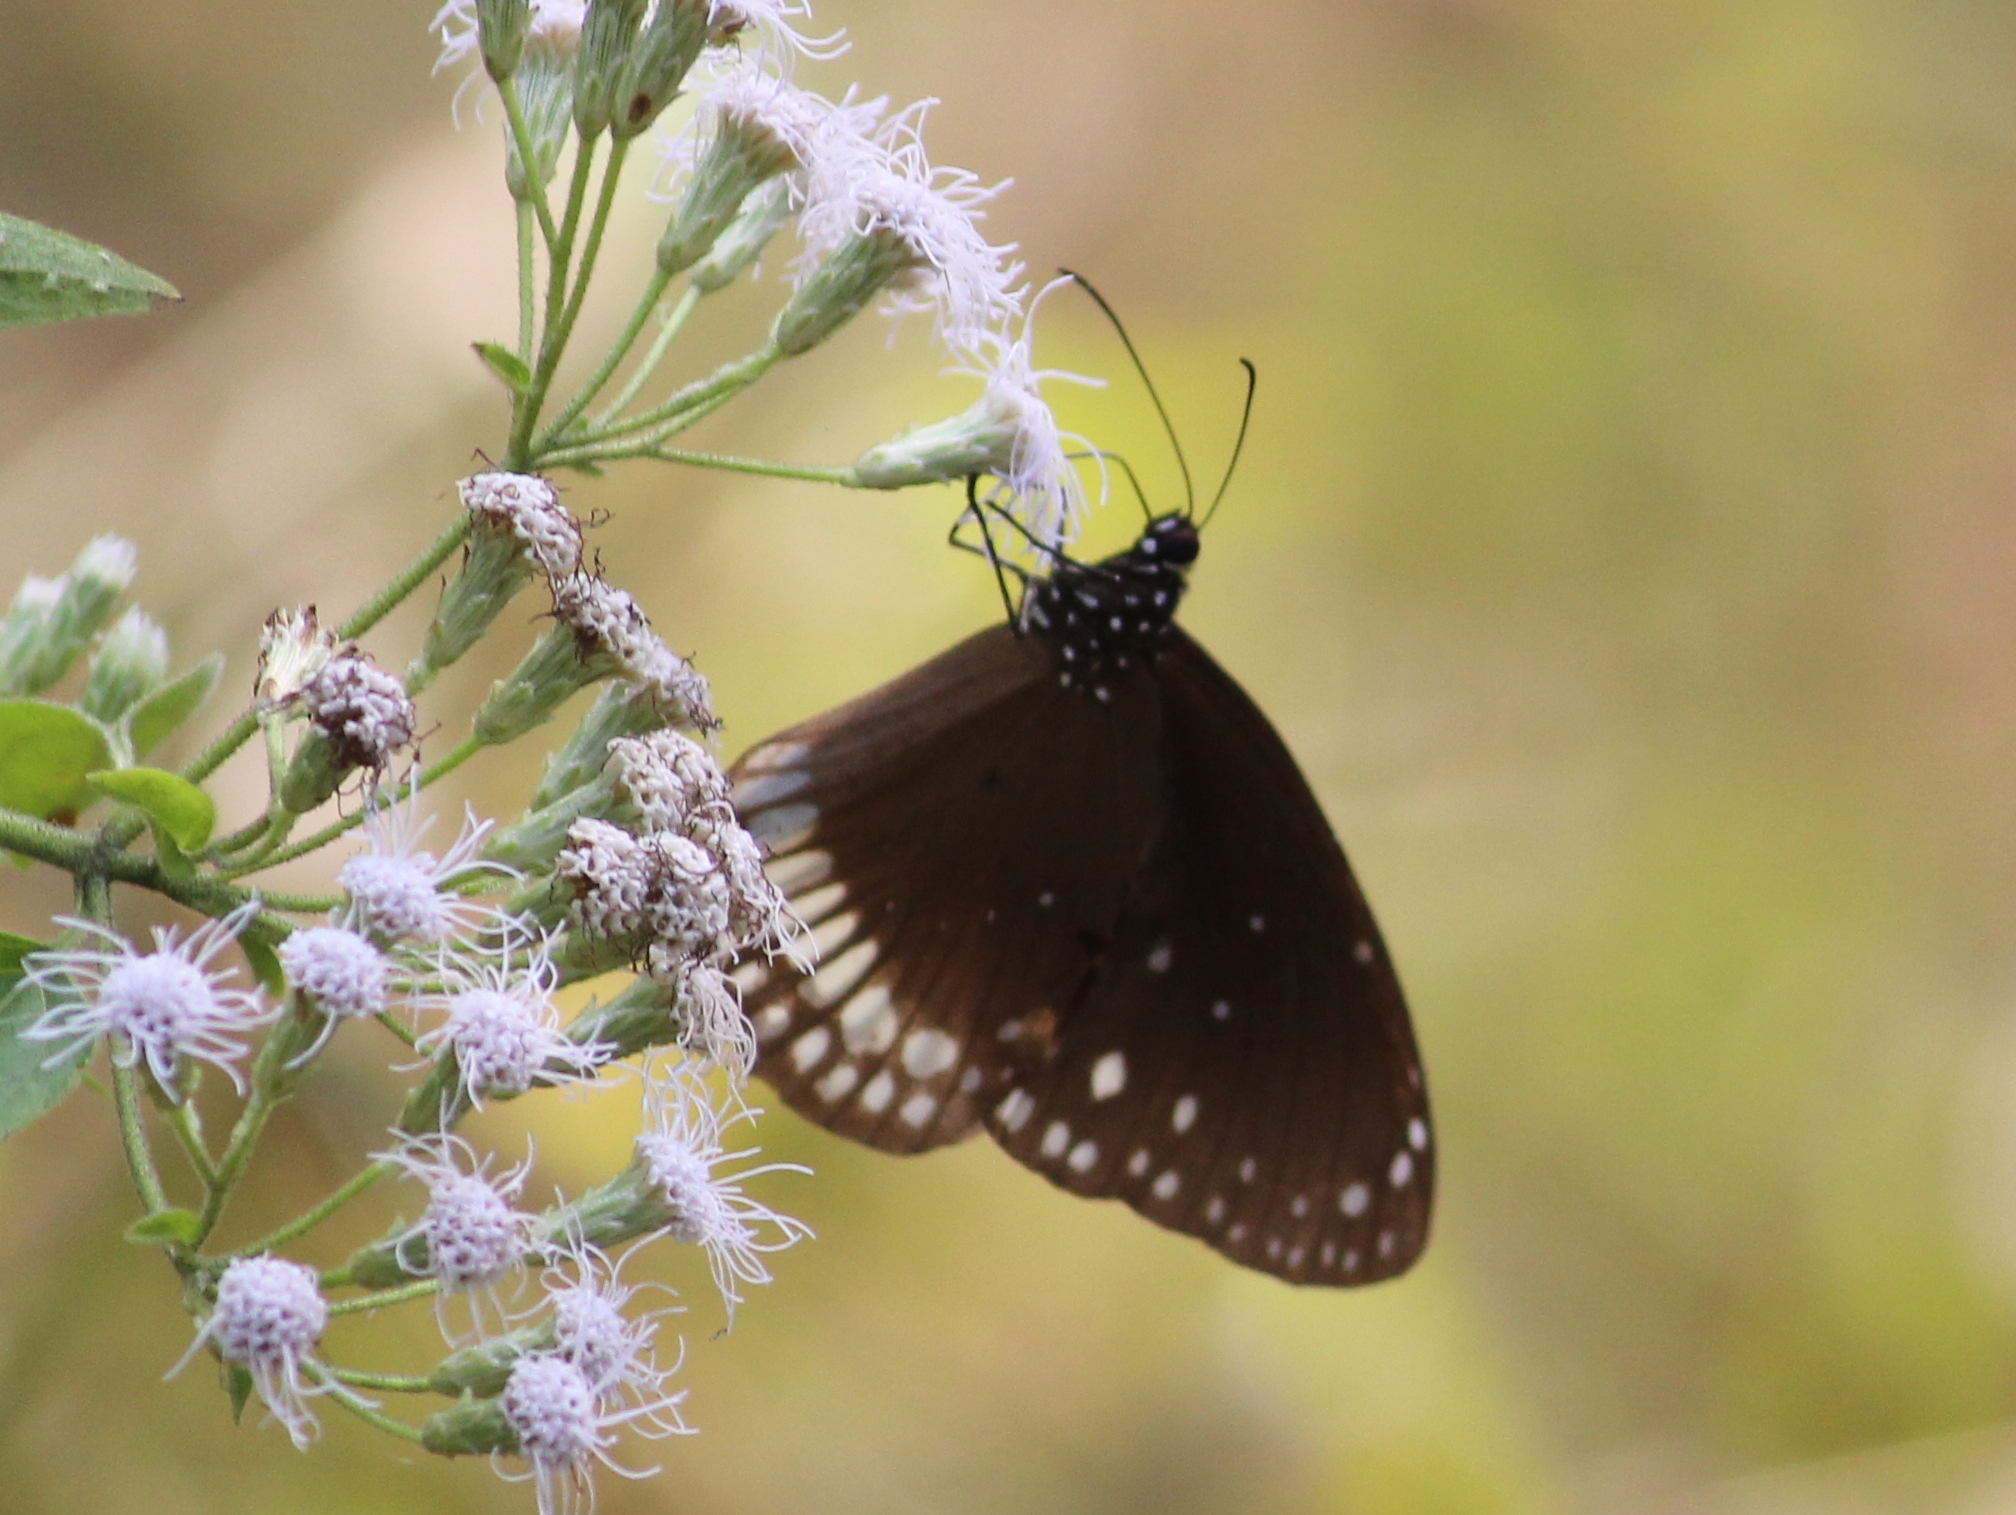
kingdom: Animalia
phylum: Arthropoda
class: Insecta
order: Lepidoptera
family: Nymphalidae
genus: Euploea
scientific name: Euploea core
